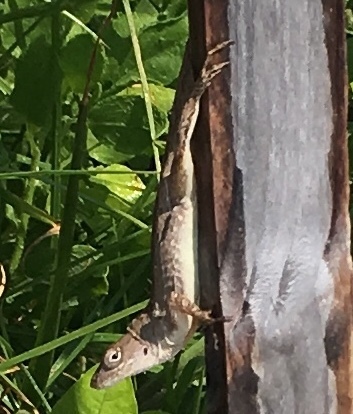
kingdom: Animalia
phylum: Chordata
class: Squamata
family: Dactyloidae
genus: Anolis
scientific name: Anolis sagrei
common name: Brown anole
